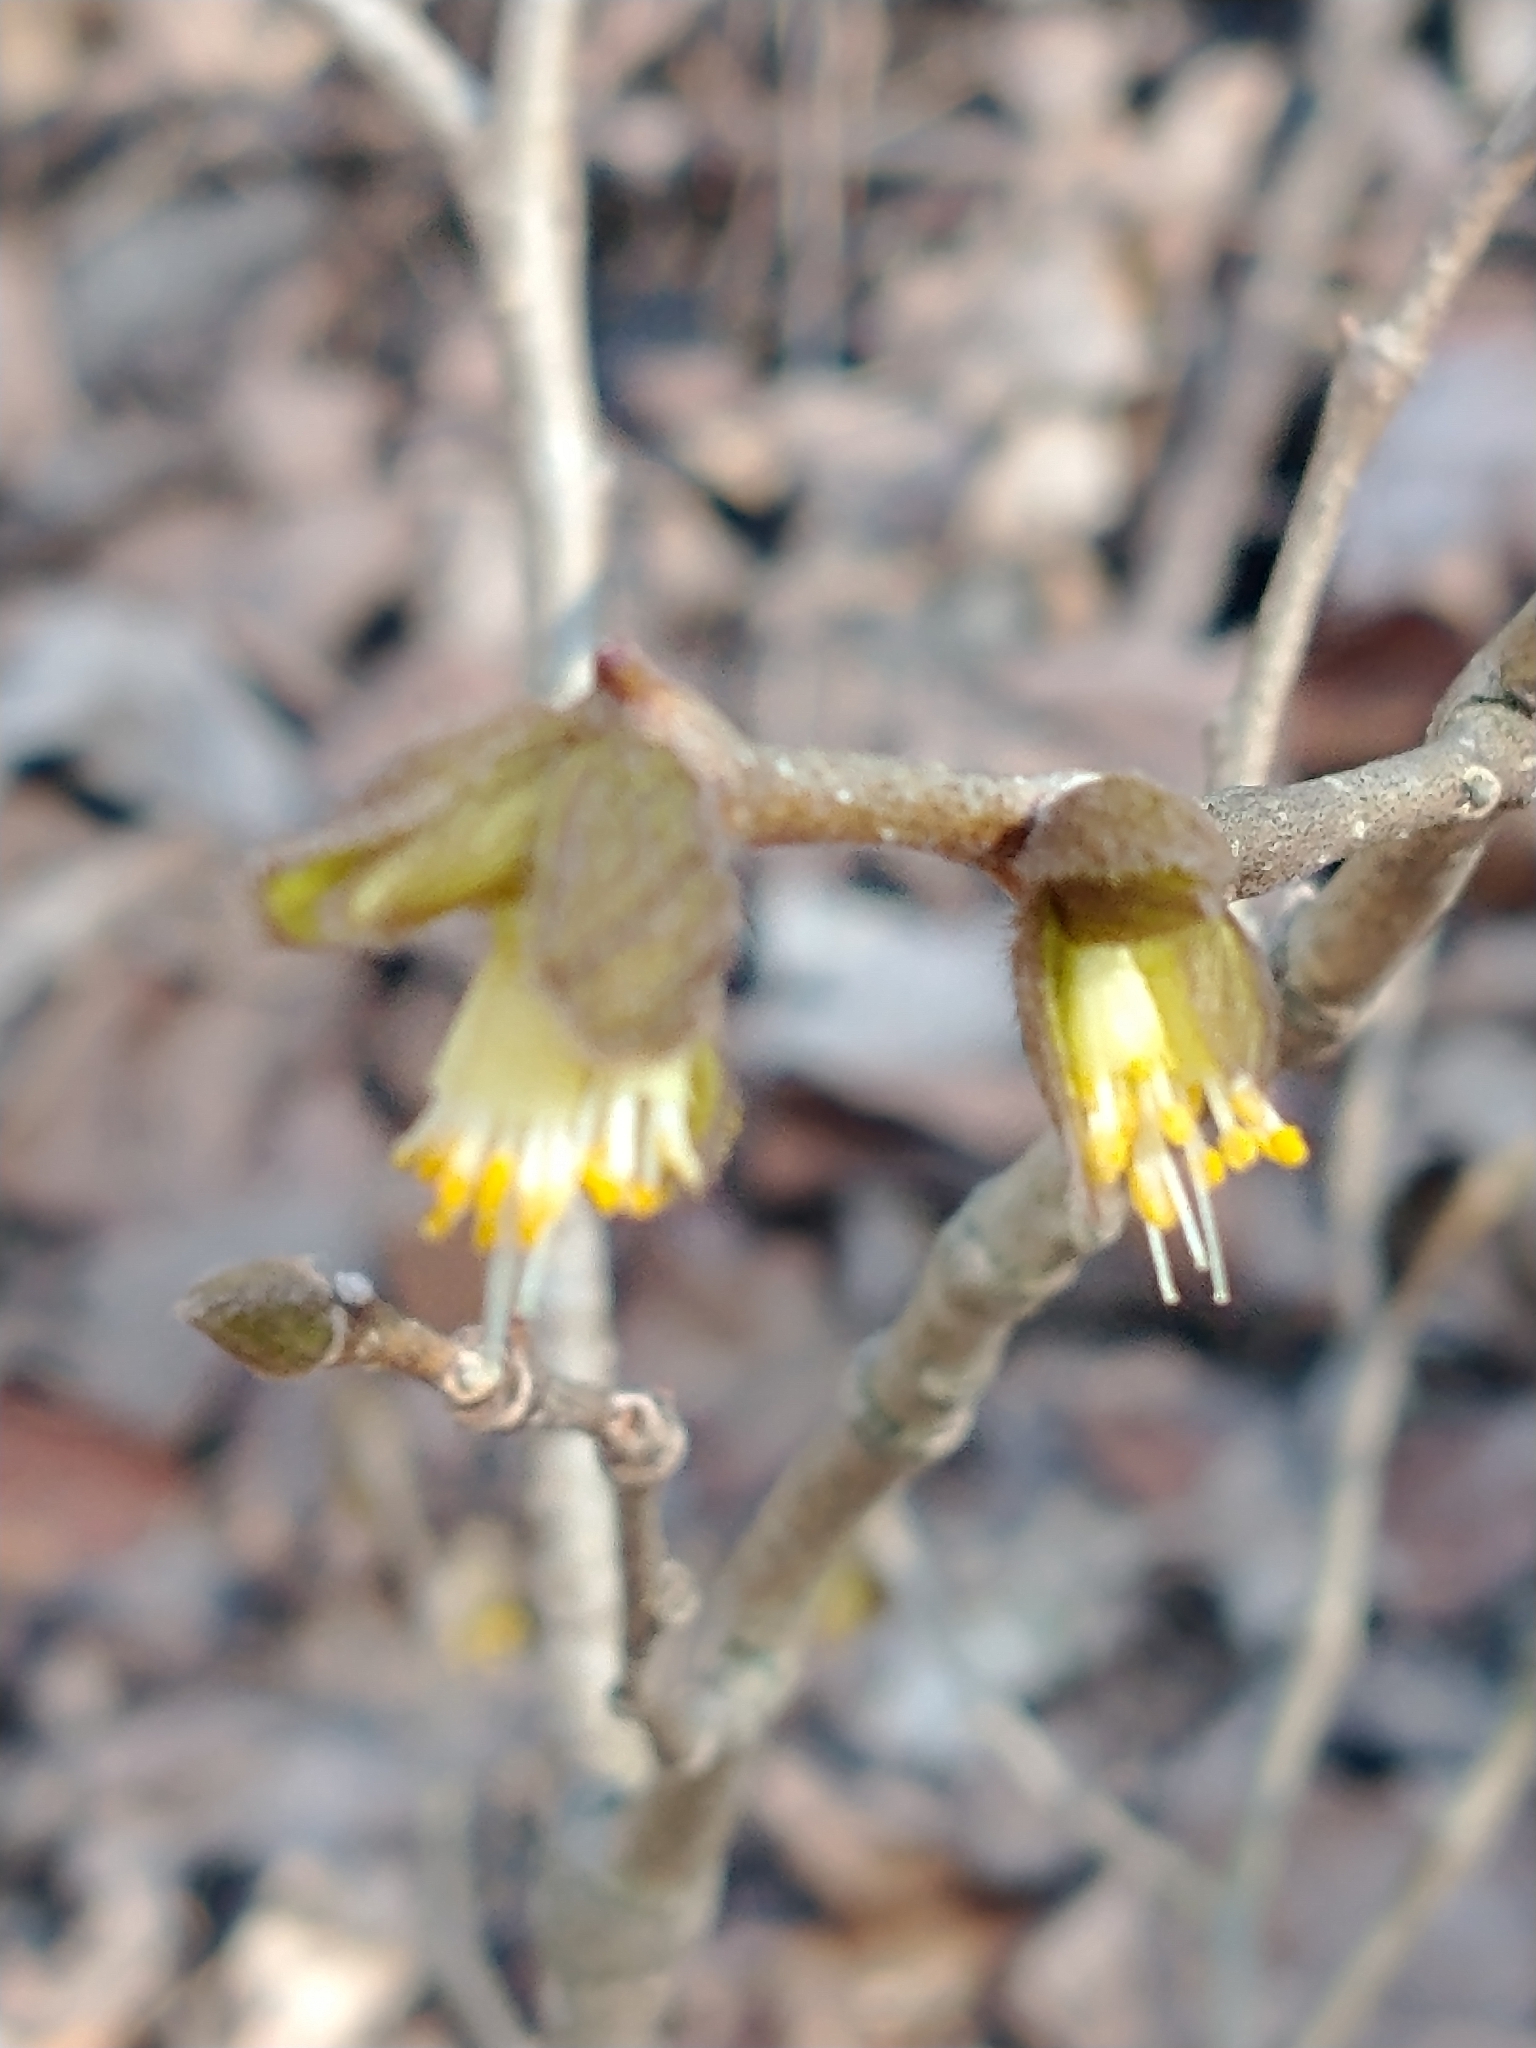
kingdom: Plantae
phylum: Tracheophyta
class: Magnoliopsida
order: Malvales
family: Thymelaeaceae
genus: Dirca
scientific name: Dirca palustris
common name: Leatherwood
